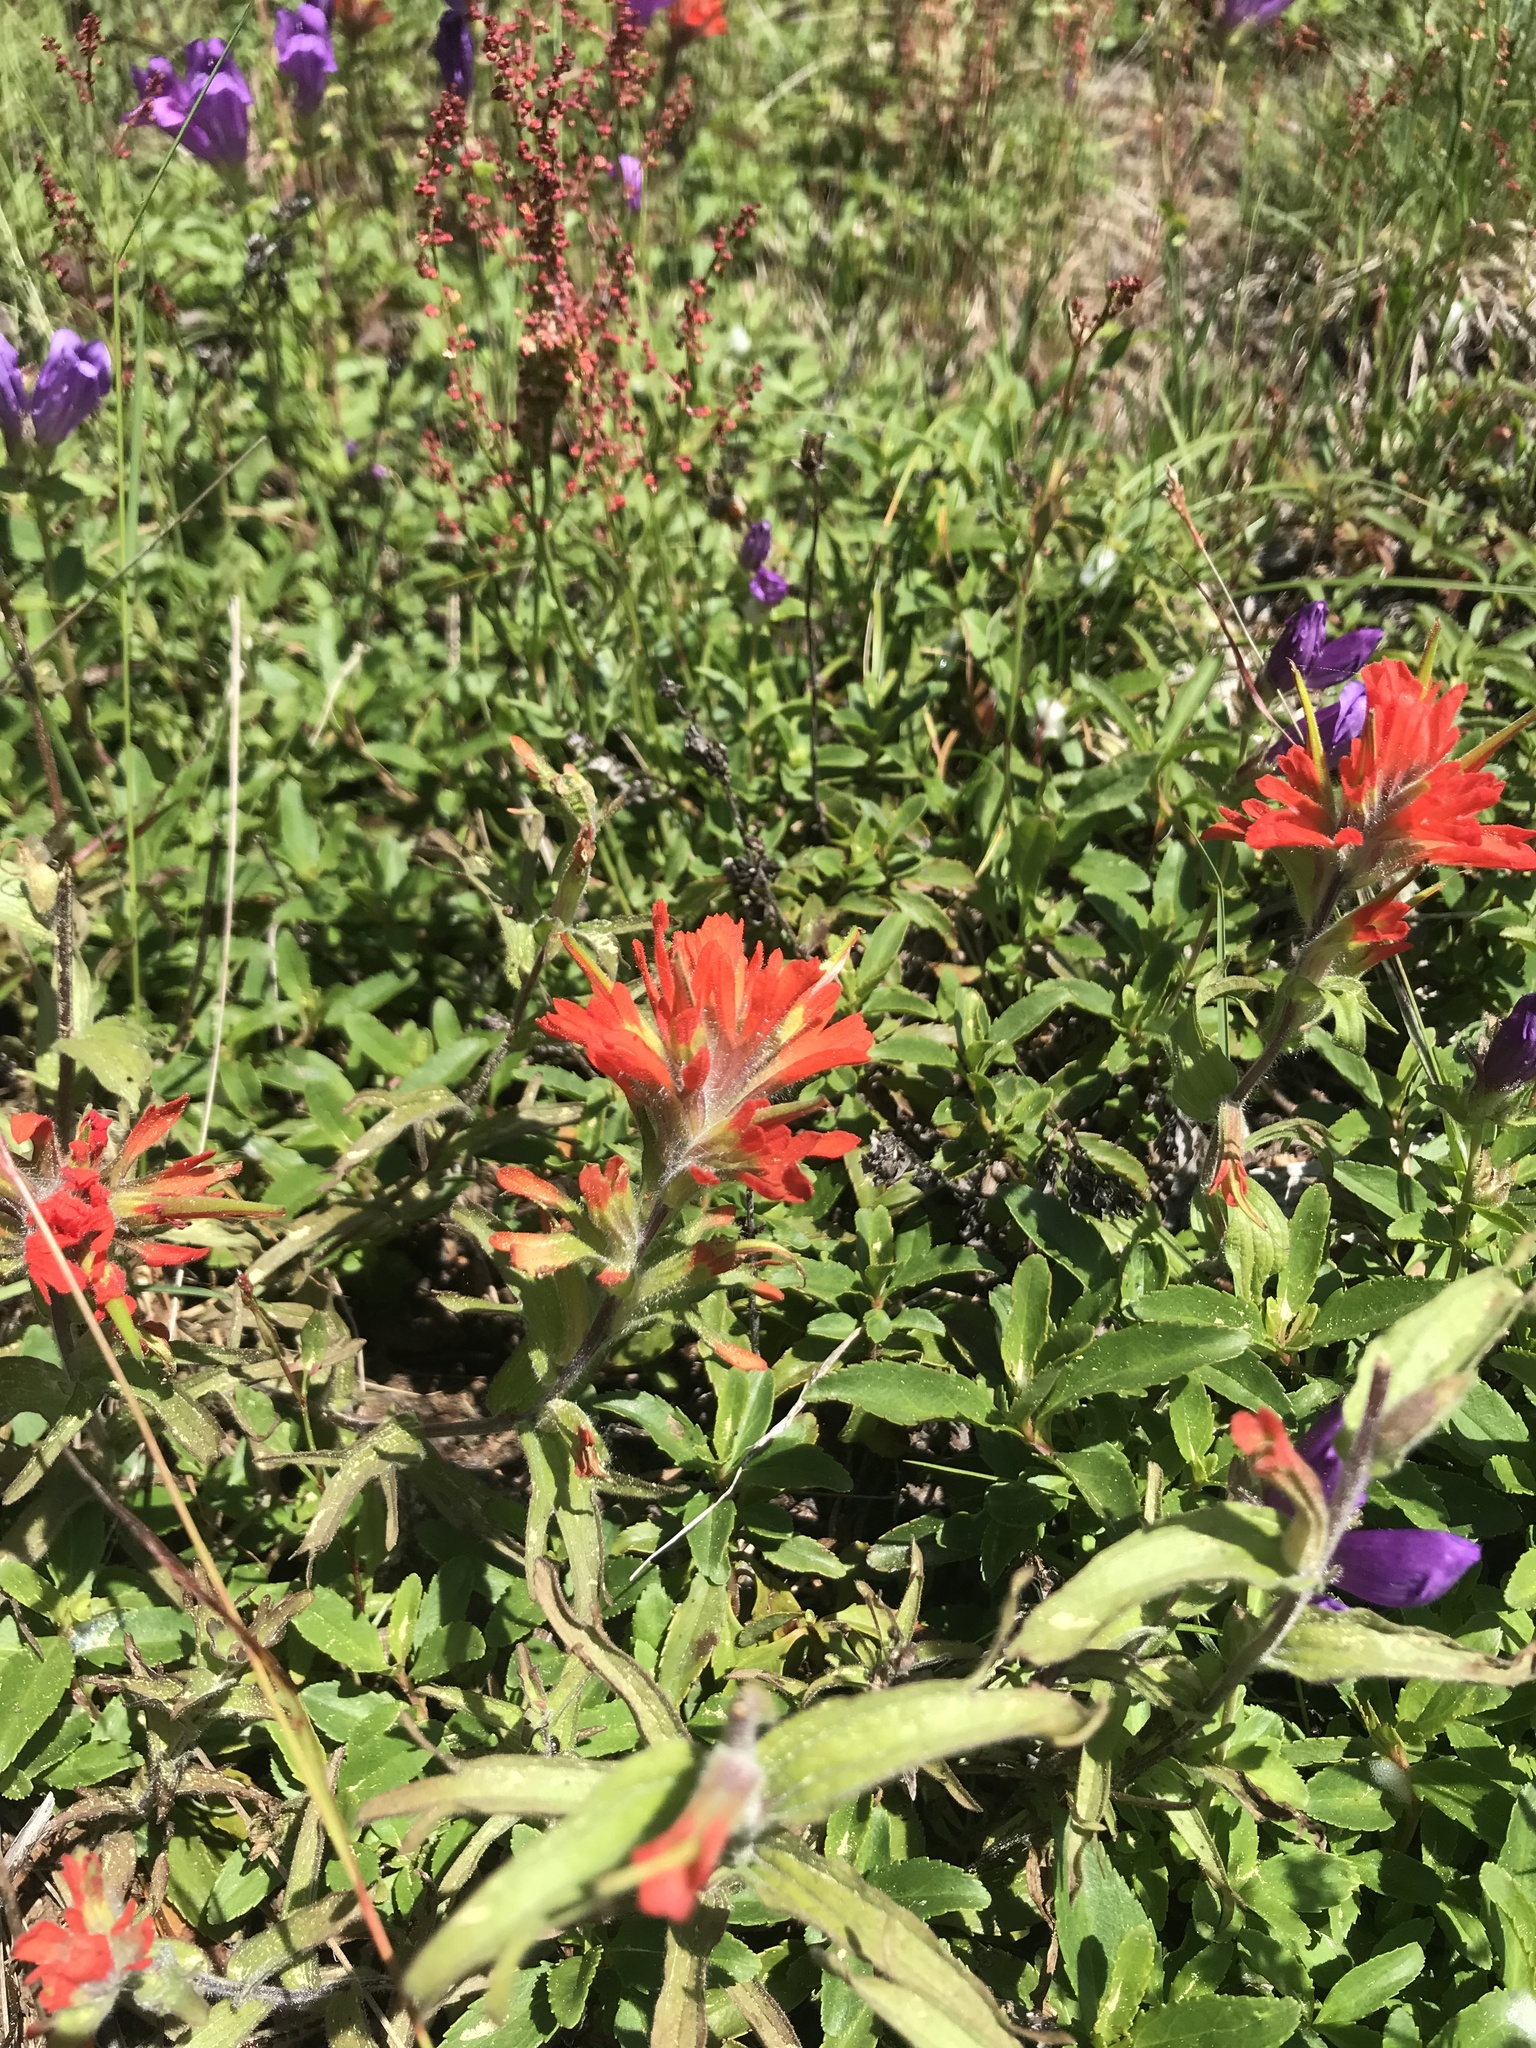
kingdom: Plantae
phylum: Tracheophyta
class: Magnoliopsida
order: Lamiales
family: Orobanchaceae
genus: Castilleja
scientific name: Castilleja hispida
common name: Bristly paintbrush
